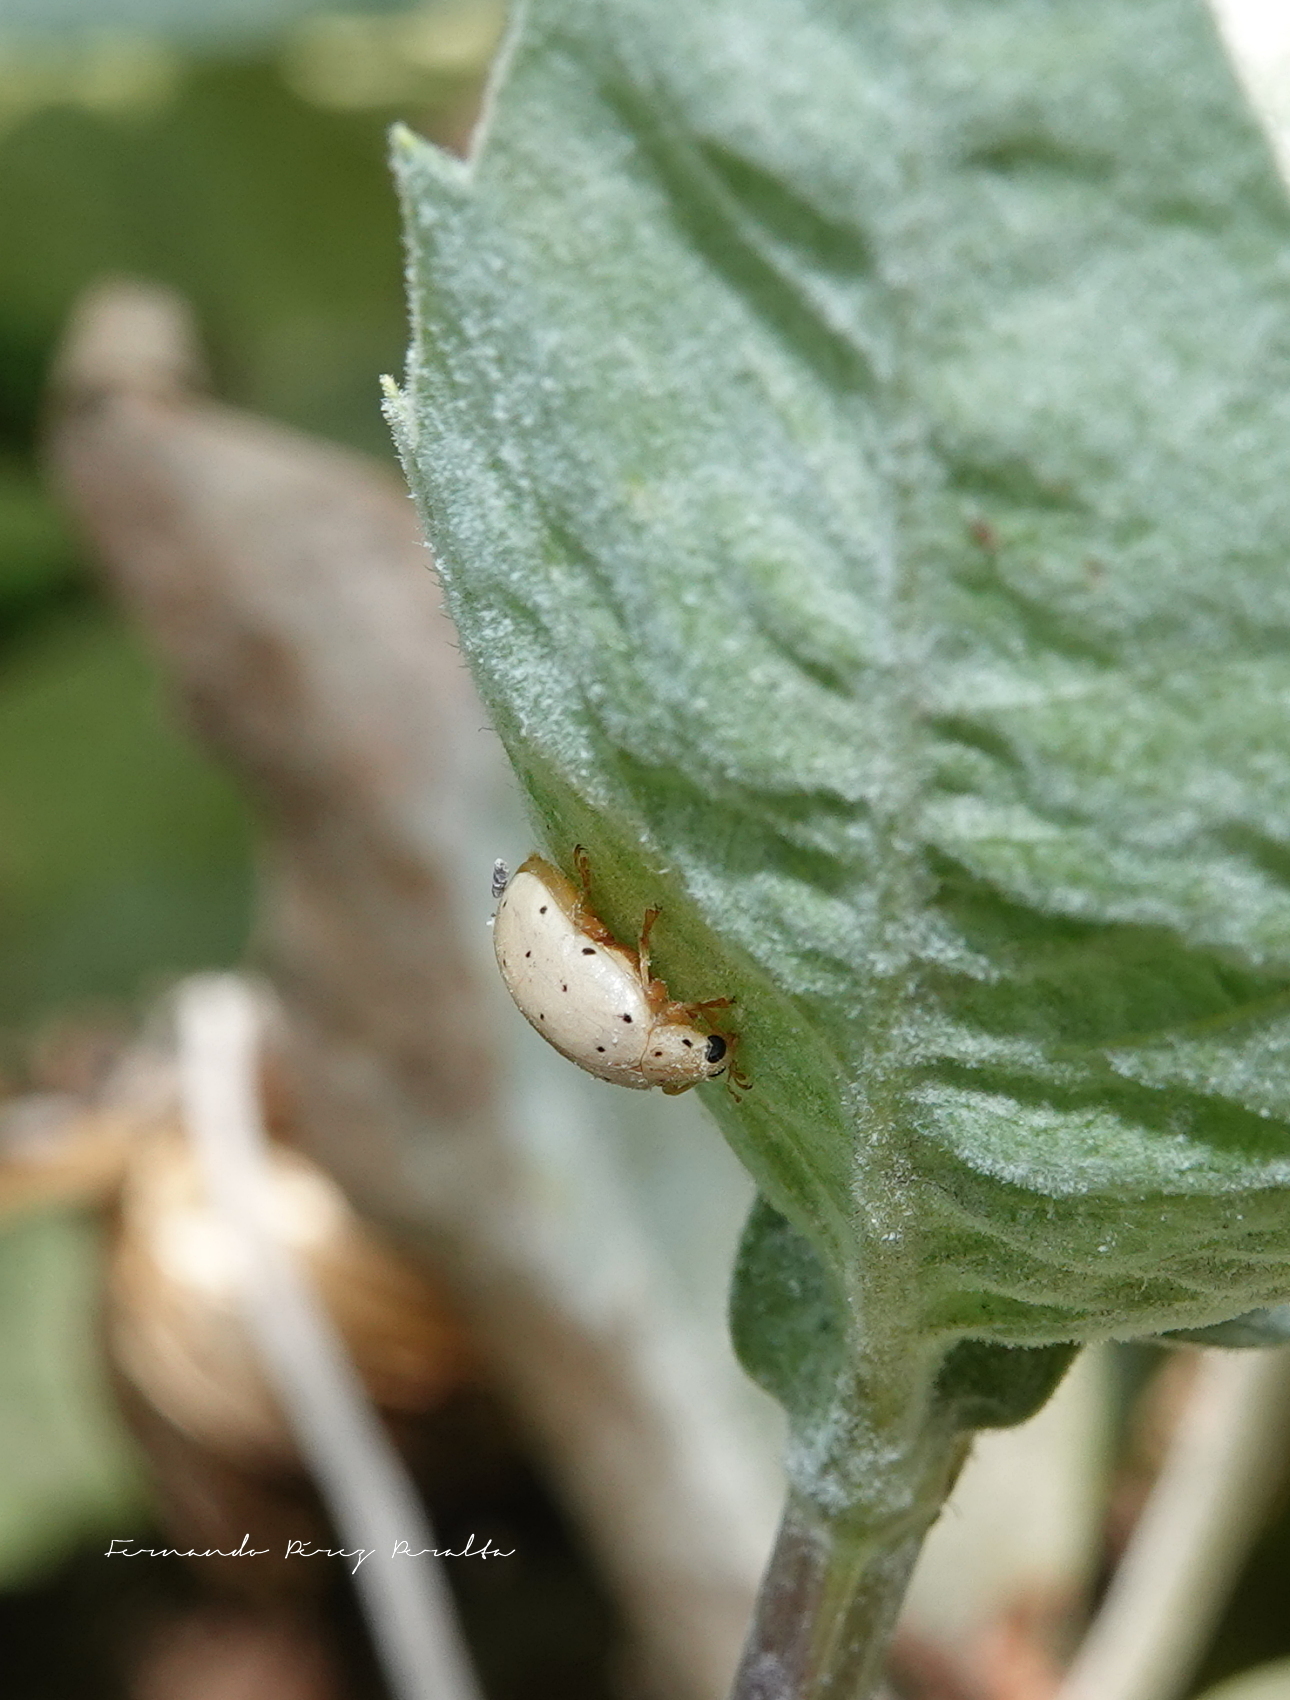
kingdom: Animalia
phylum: Arthropoda
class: Insecta
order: Coleoptera
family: Coccinellidae
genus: Neohalyzia
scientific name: Neohalyzia
